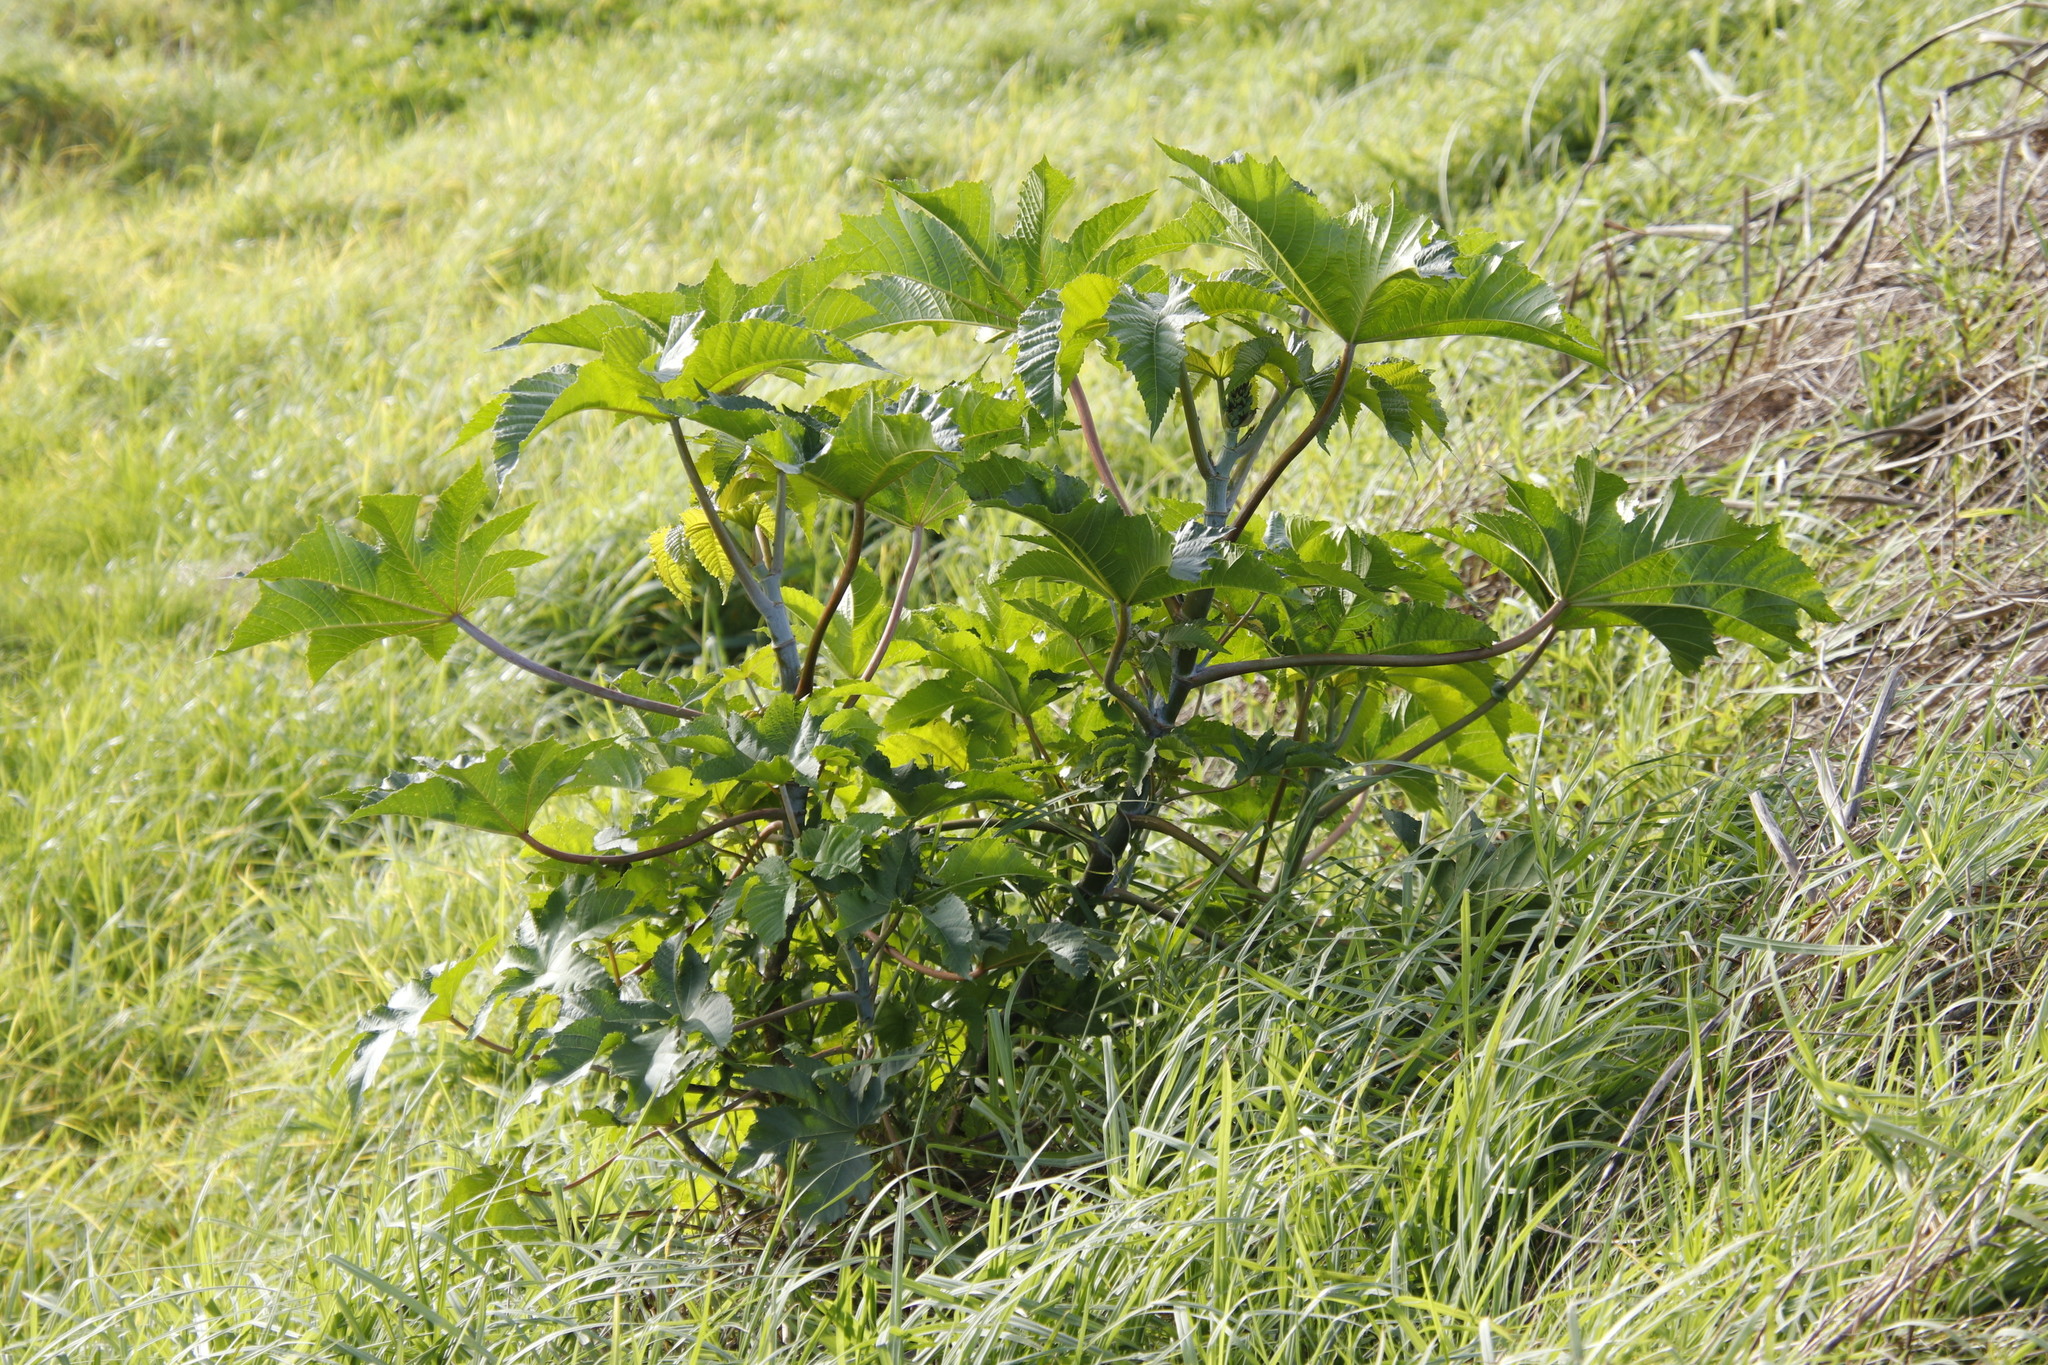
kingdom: Plantae
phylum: Tracheophyta
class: Magnoliopsida
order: Malpighiales
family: Euphorbiaceae
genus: Ricinus
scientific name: Ricinus communis
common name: Castor-oil-plant
